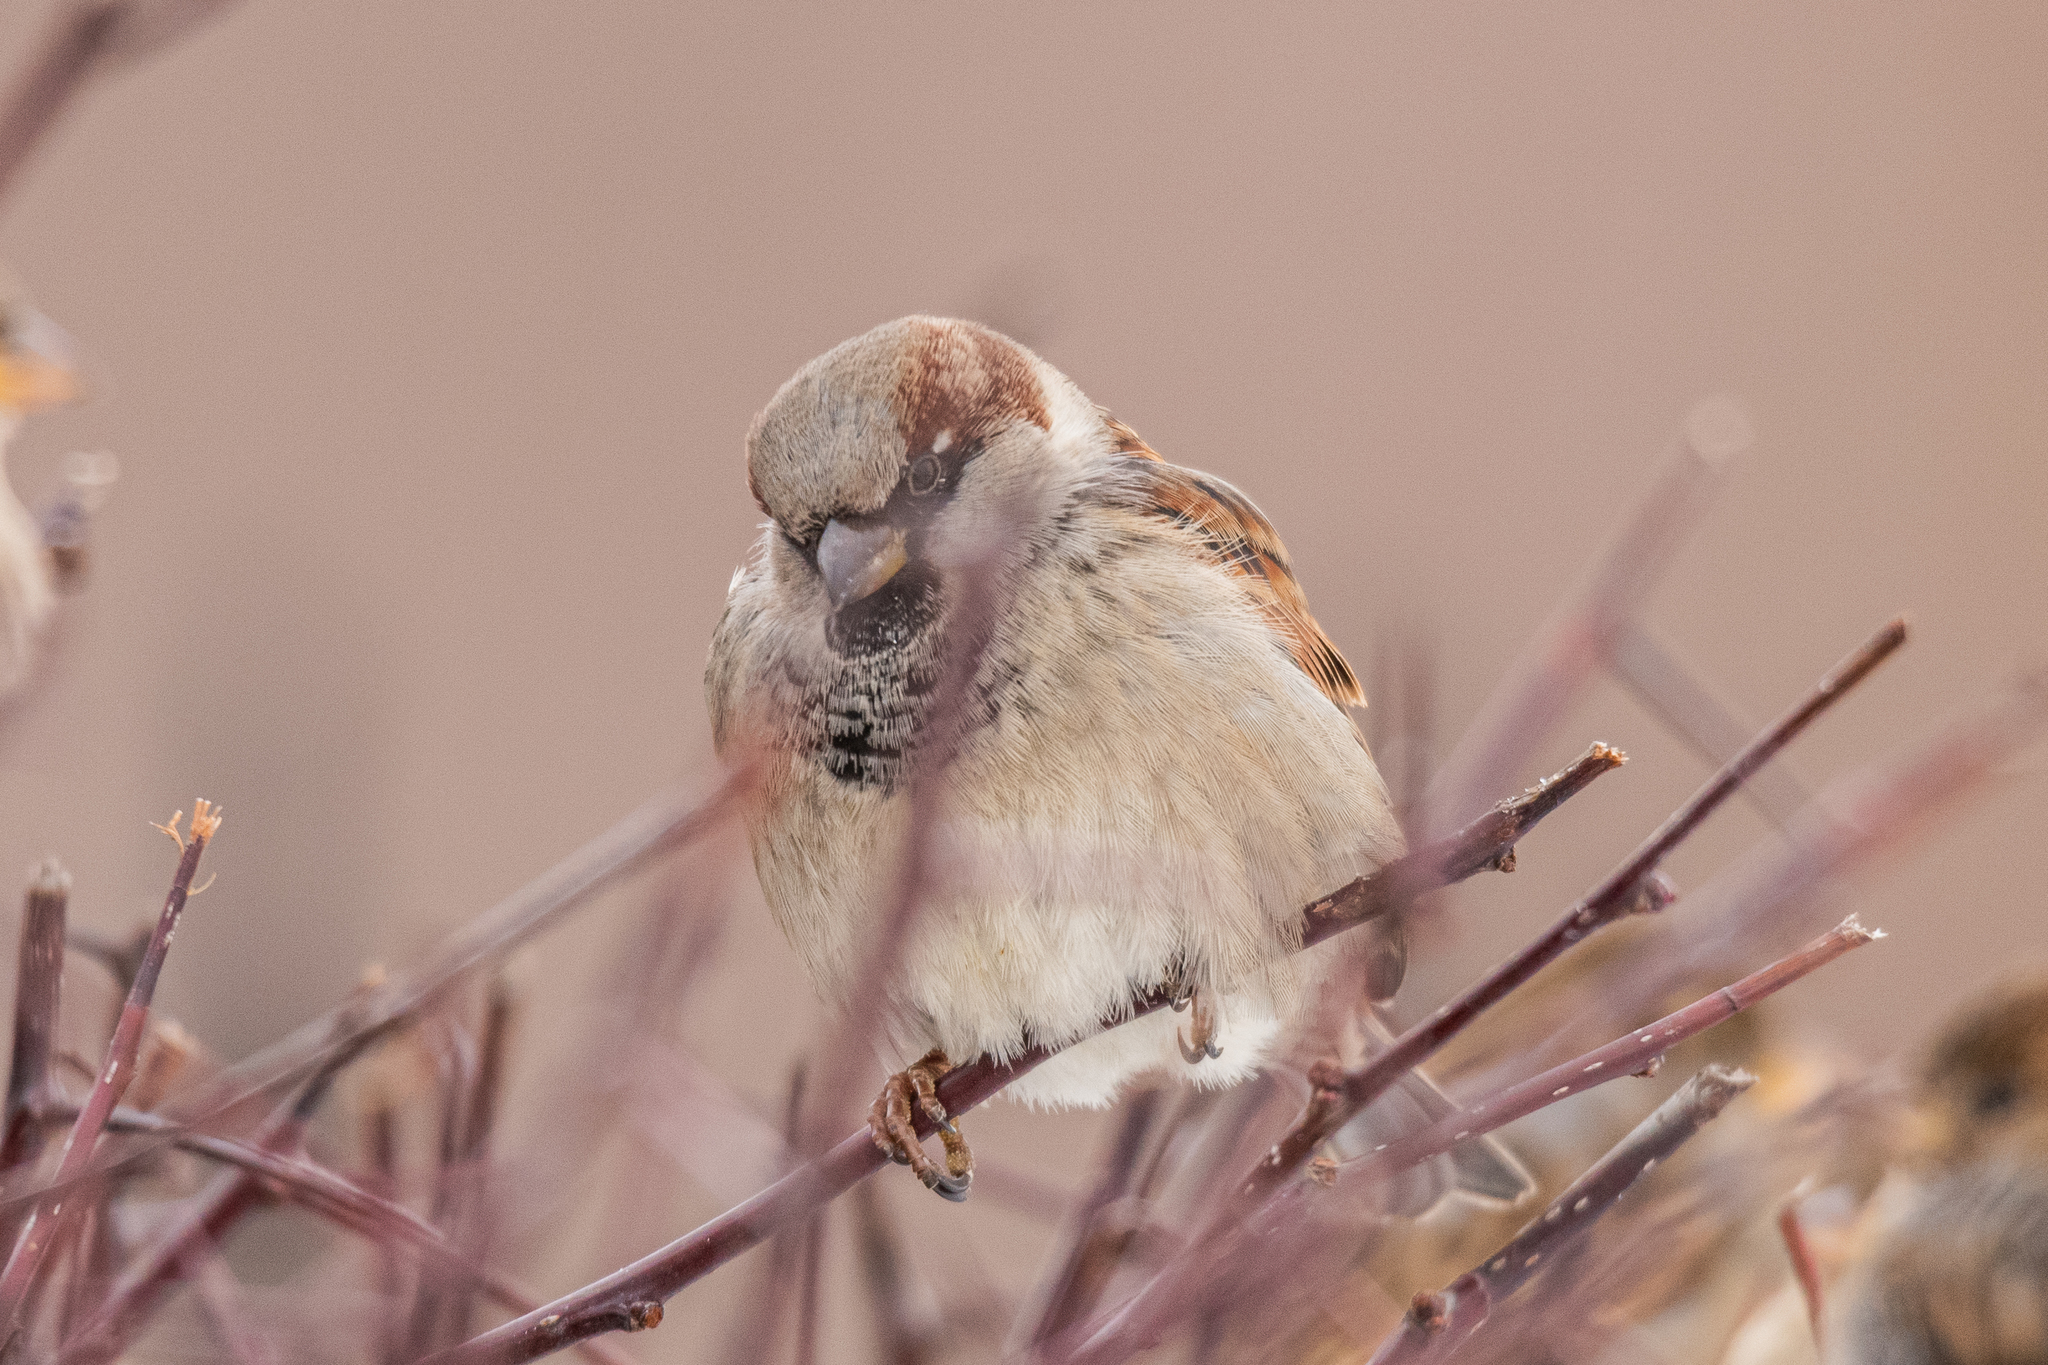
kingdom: Animalia
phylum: Chordata
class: Aves
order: Passeriformes
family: Passeridae
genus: Passer
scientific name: Passer domesticus
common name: House sparrow
